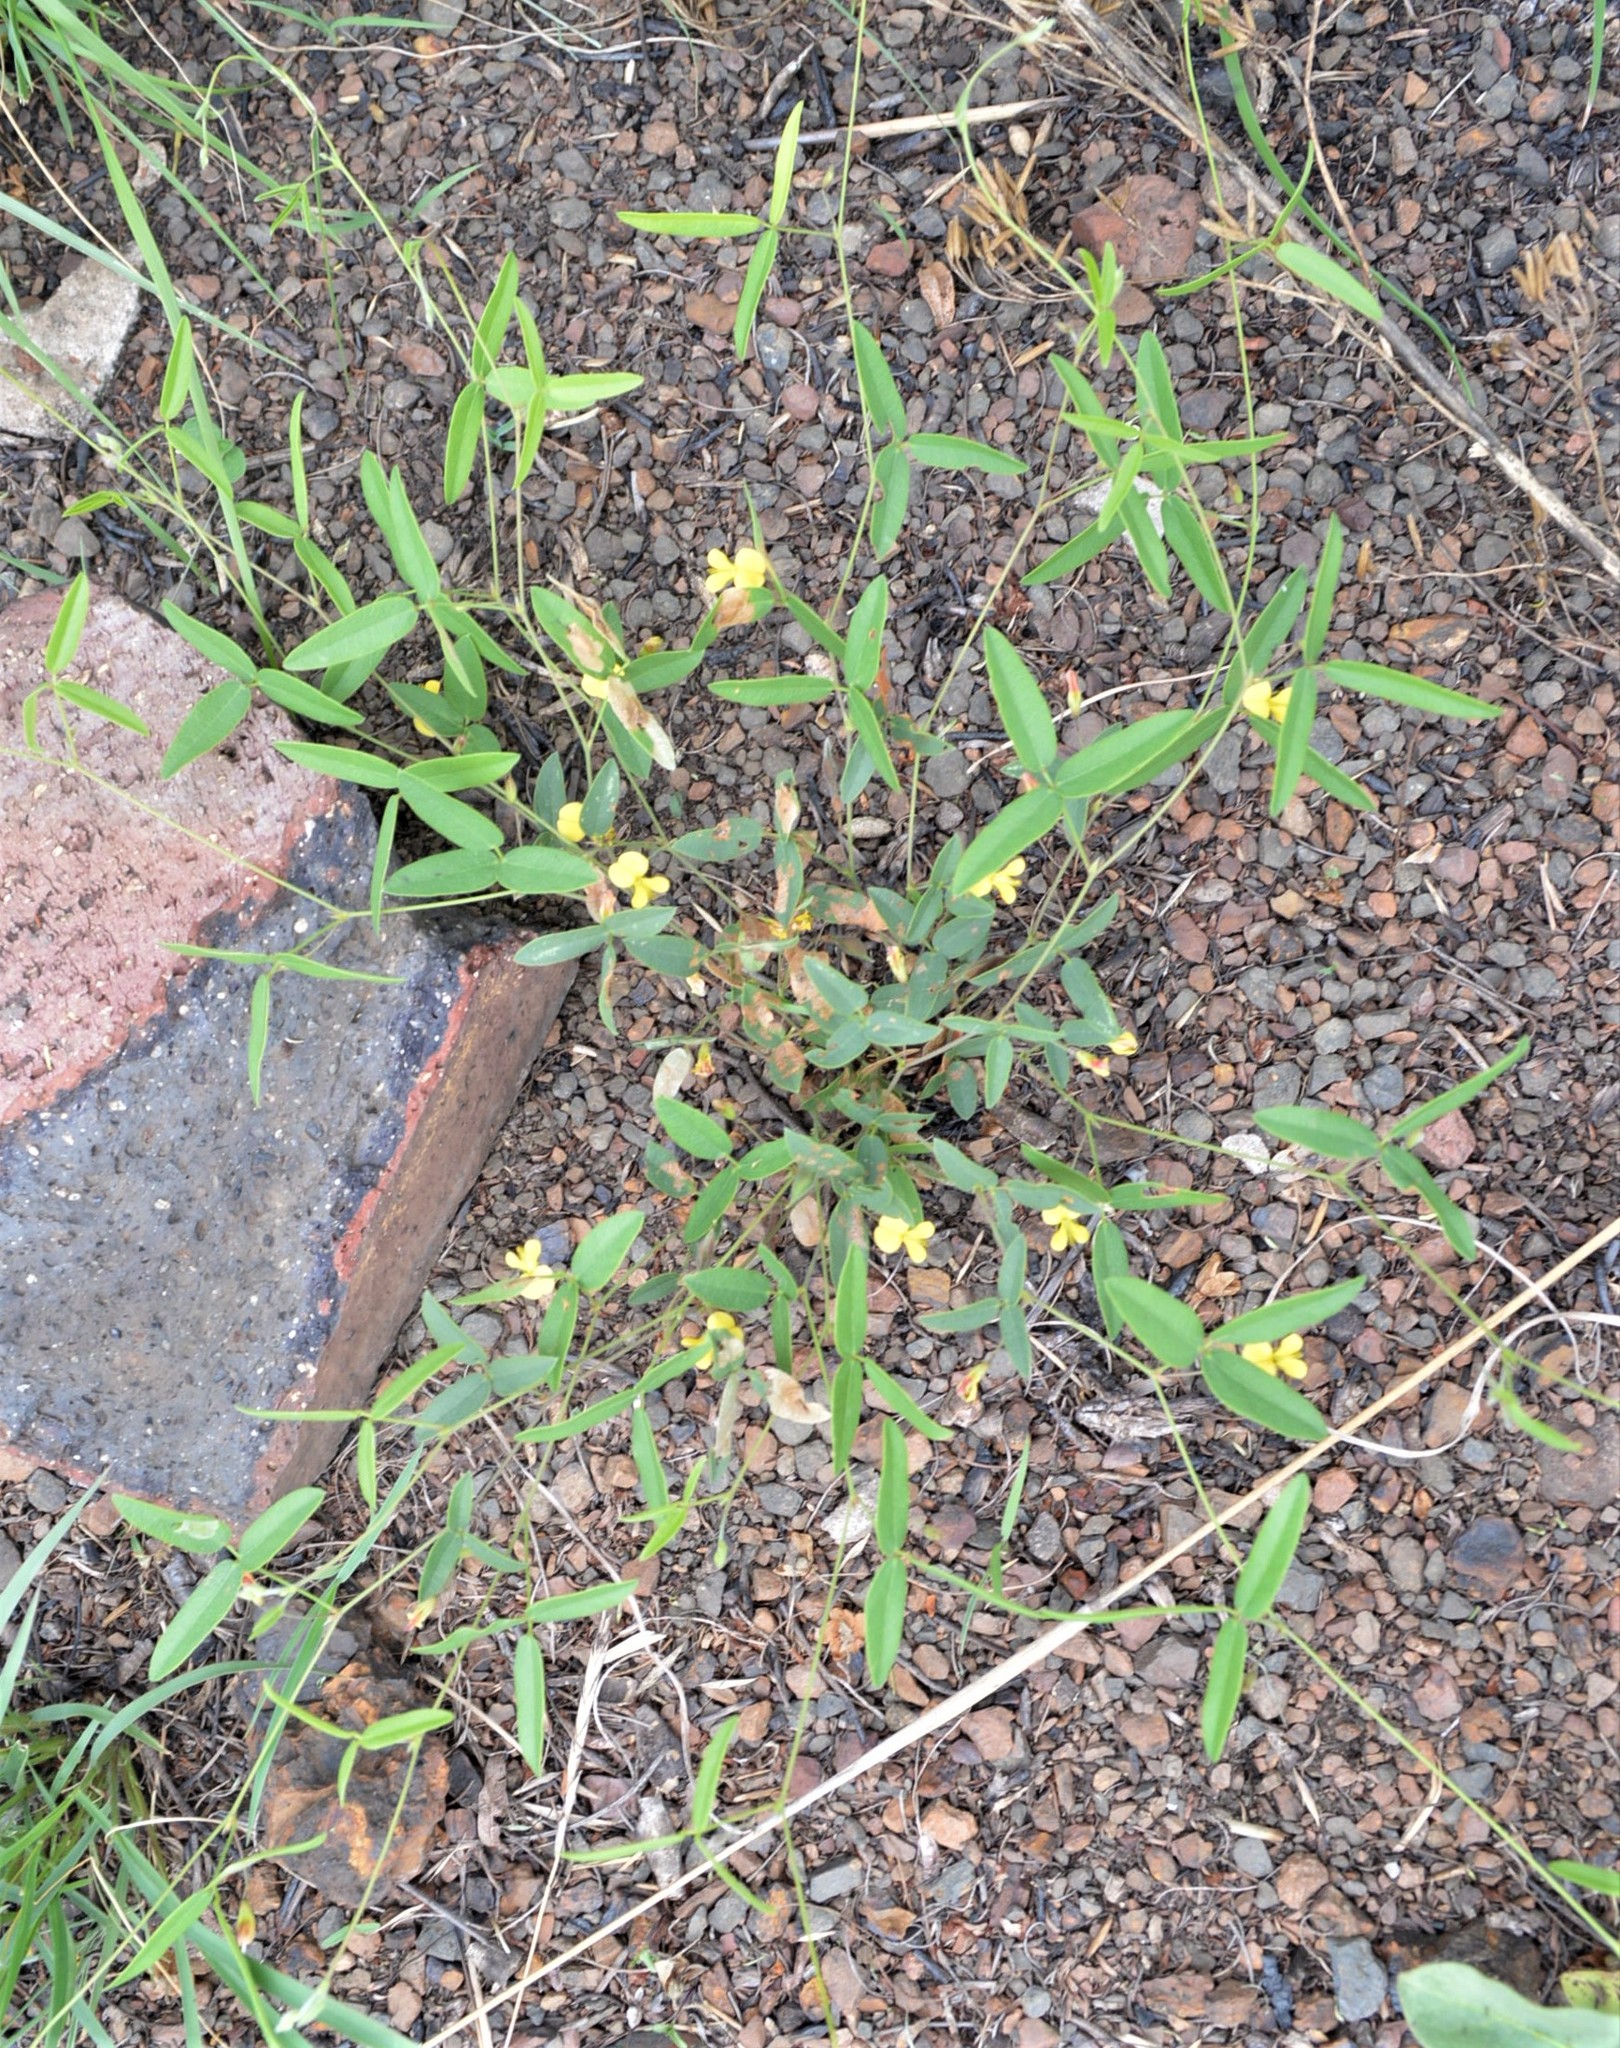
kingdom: Plantae
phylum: Tracheophyta
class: Magnoliopsida
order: Fabales
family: Fabaceae
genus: Rhynchosia
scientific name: Rhynchosia totta
